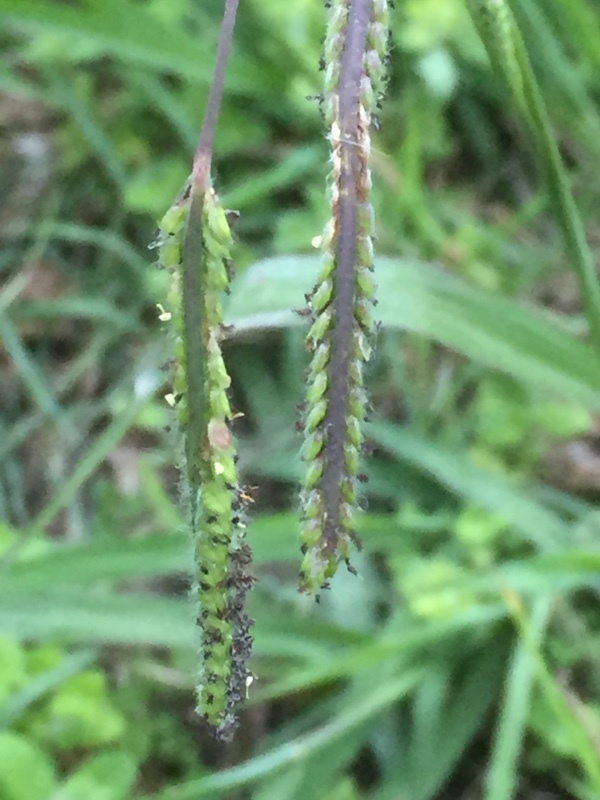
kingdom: Plantae
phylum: Tracheophyta
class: Liliopsida
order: Poales
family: Poaceae
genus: Paspalum
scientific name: Paspalum dilatatum
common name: Dallisgrass
